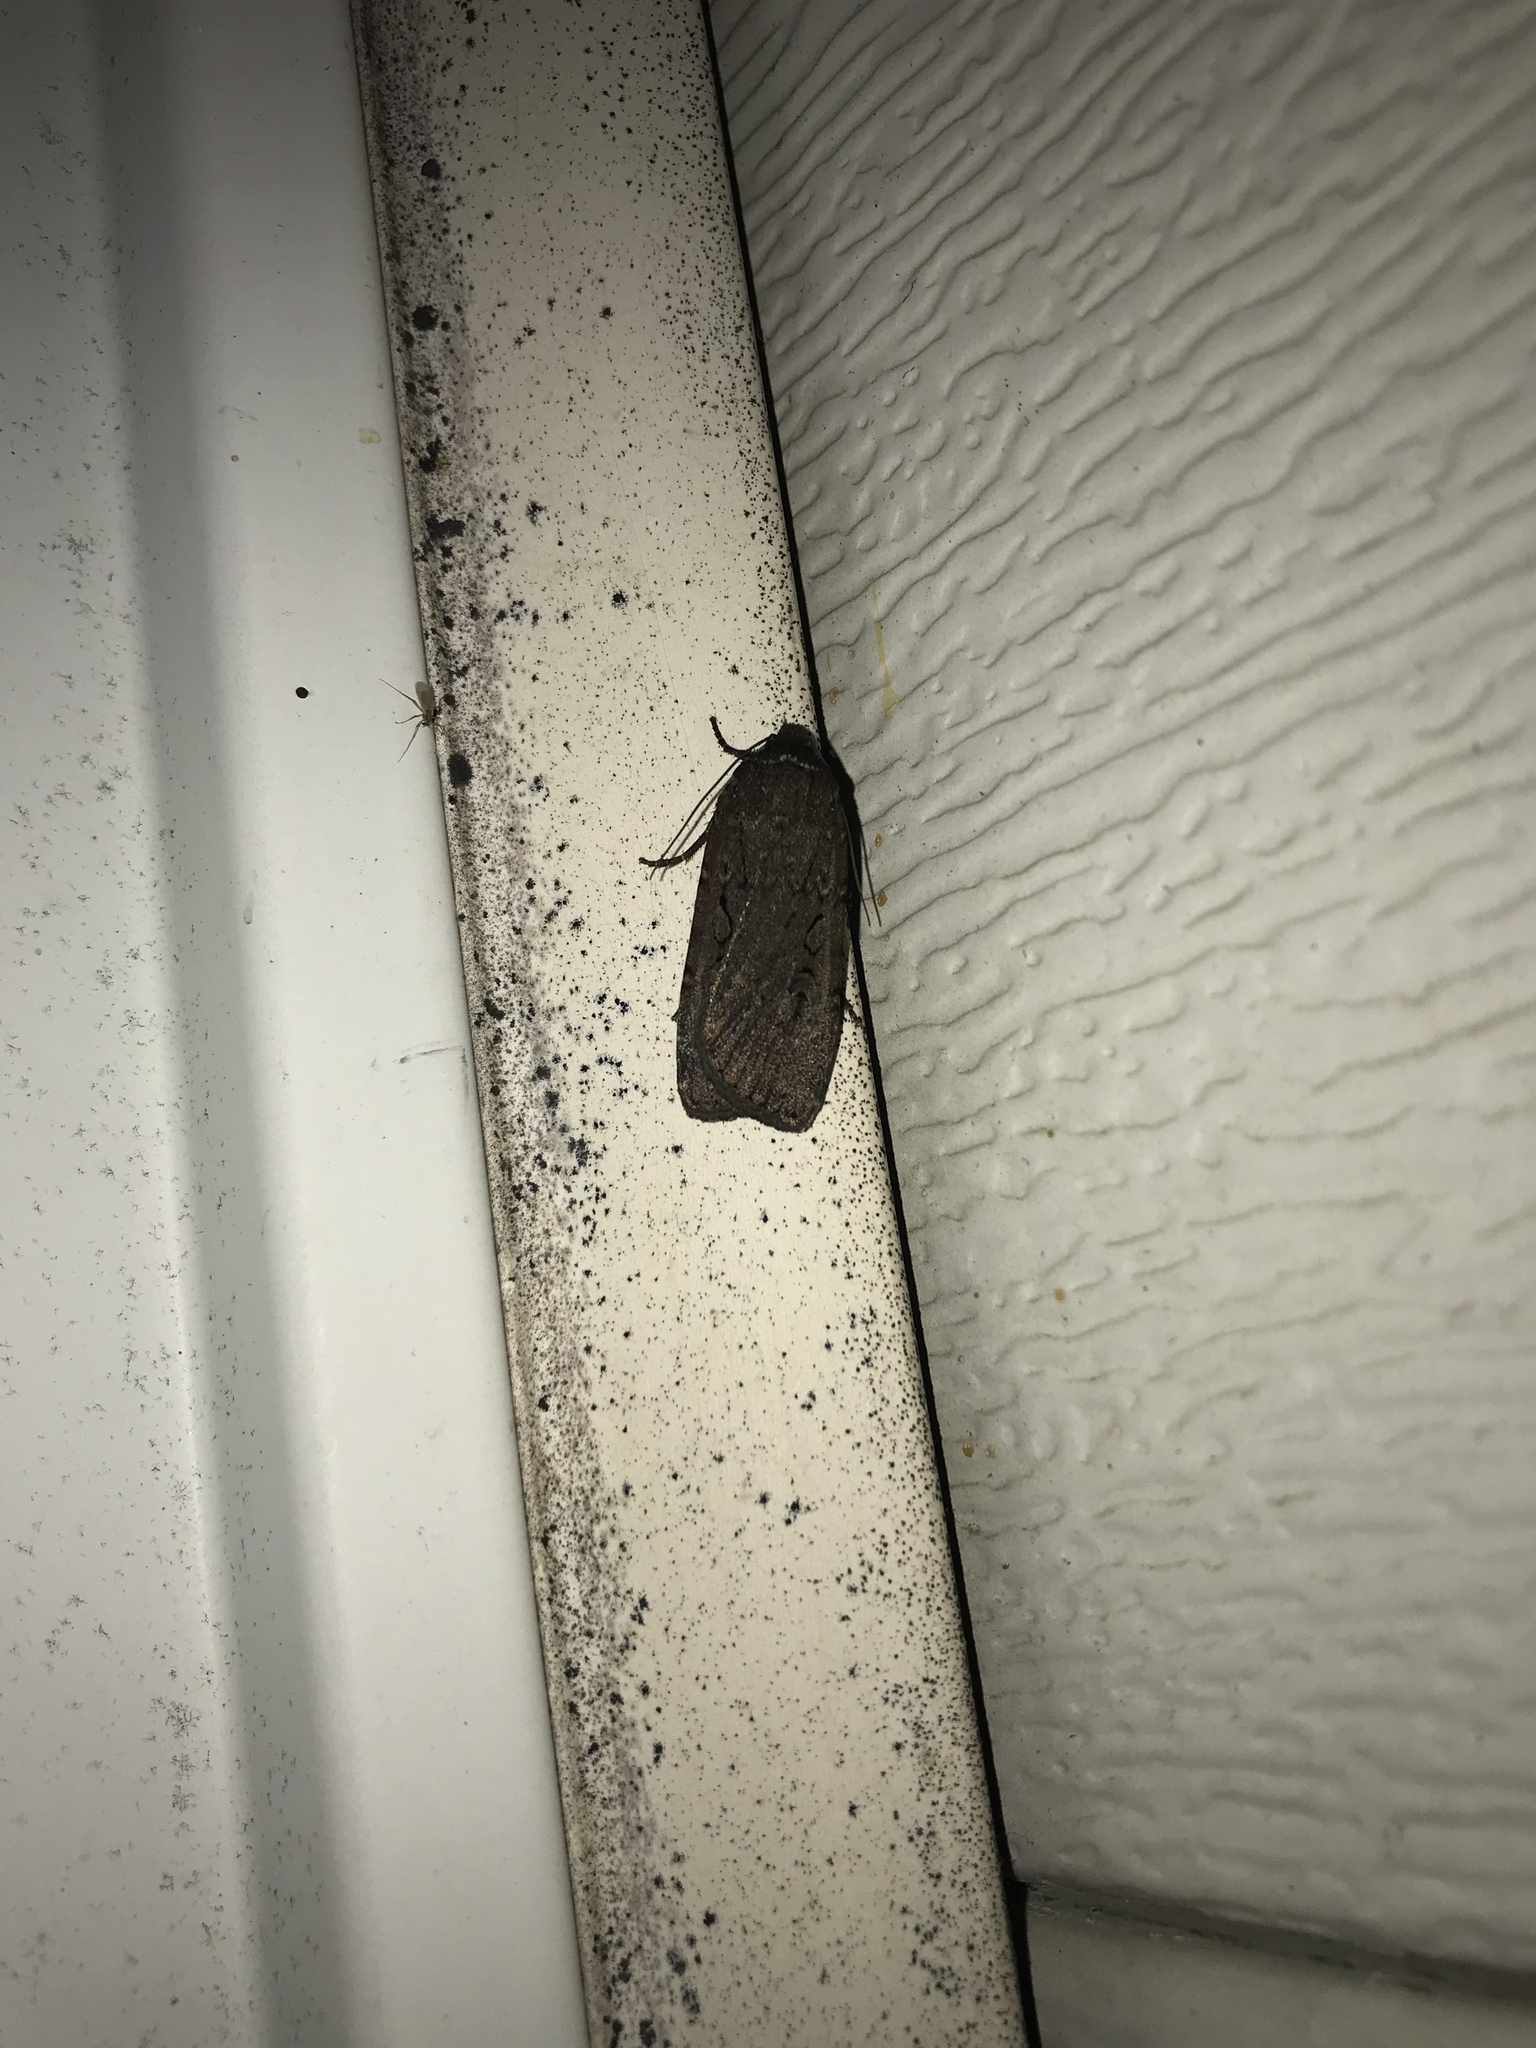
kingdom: Animalia
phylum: Arthropoda
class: Insecta
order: Lepidoptera
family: Noctuidae
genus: Spaelotis
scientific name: Spaelotis clandestina
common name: Clandestine dart
